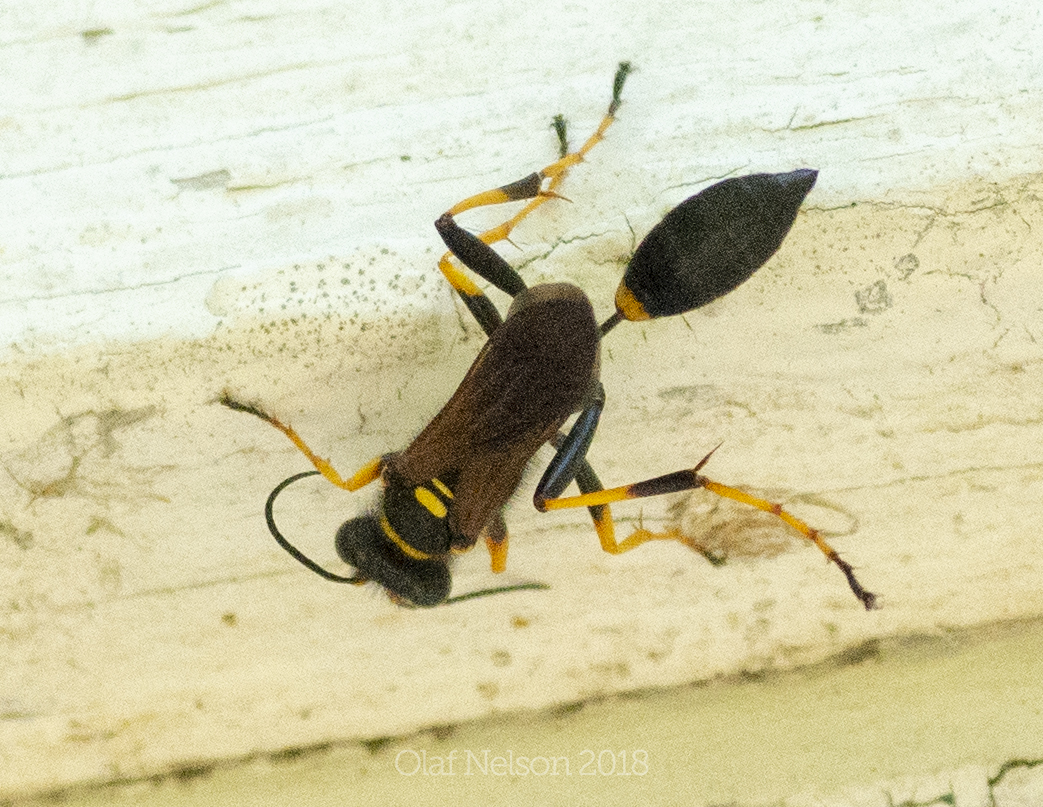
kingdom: Animalia
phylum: Arthropoda
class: Insecta
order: Hymenoptera
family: Sphecidae
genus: Sceliphron
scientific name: Sceliphron caementarium
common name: Mud dauber
